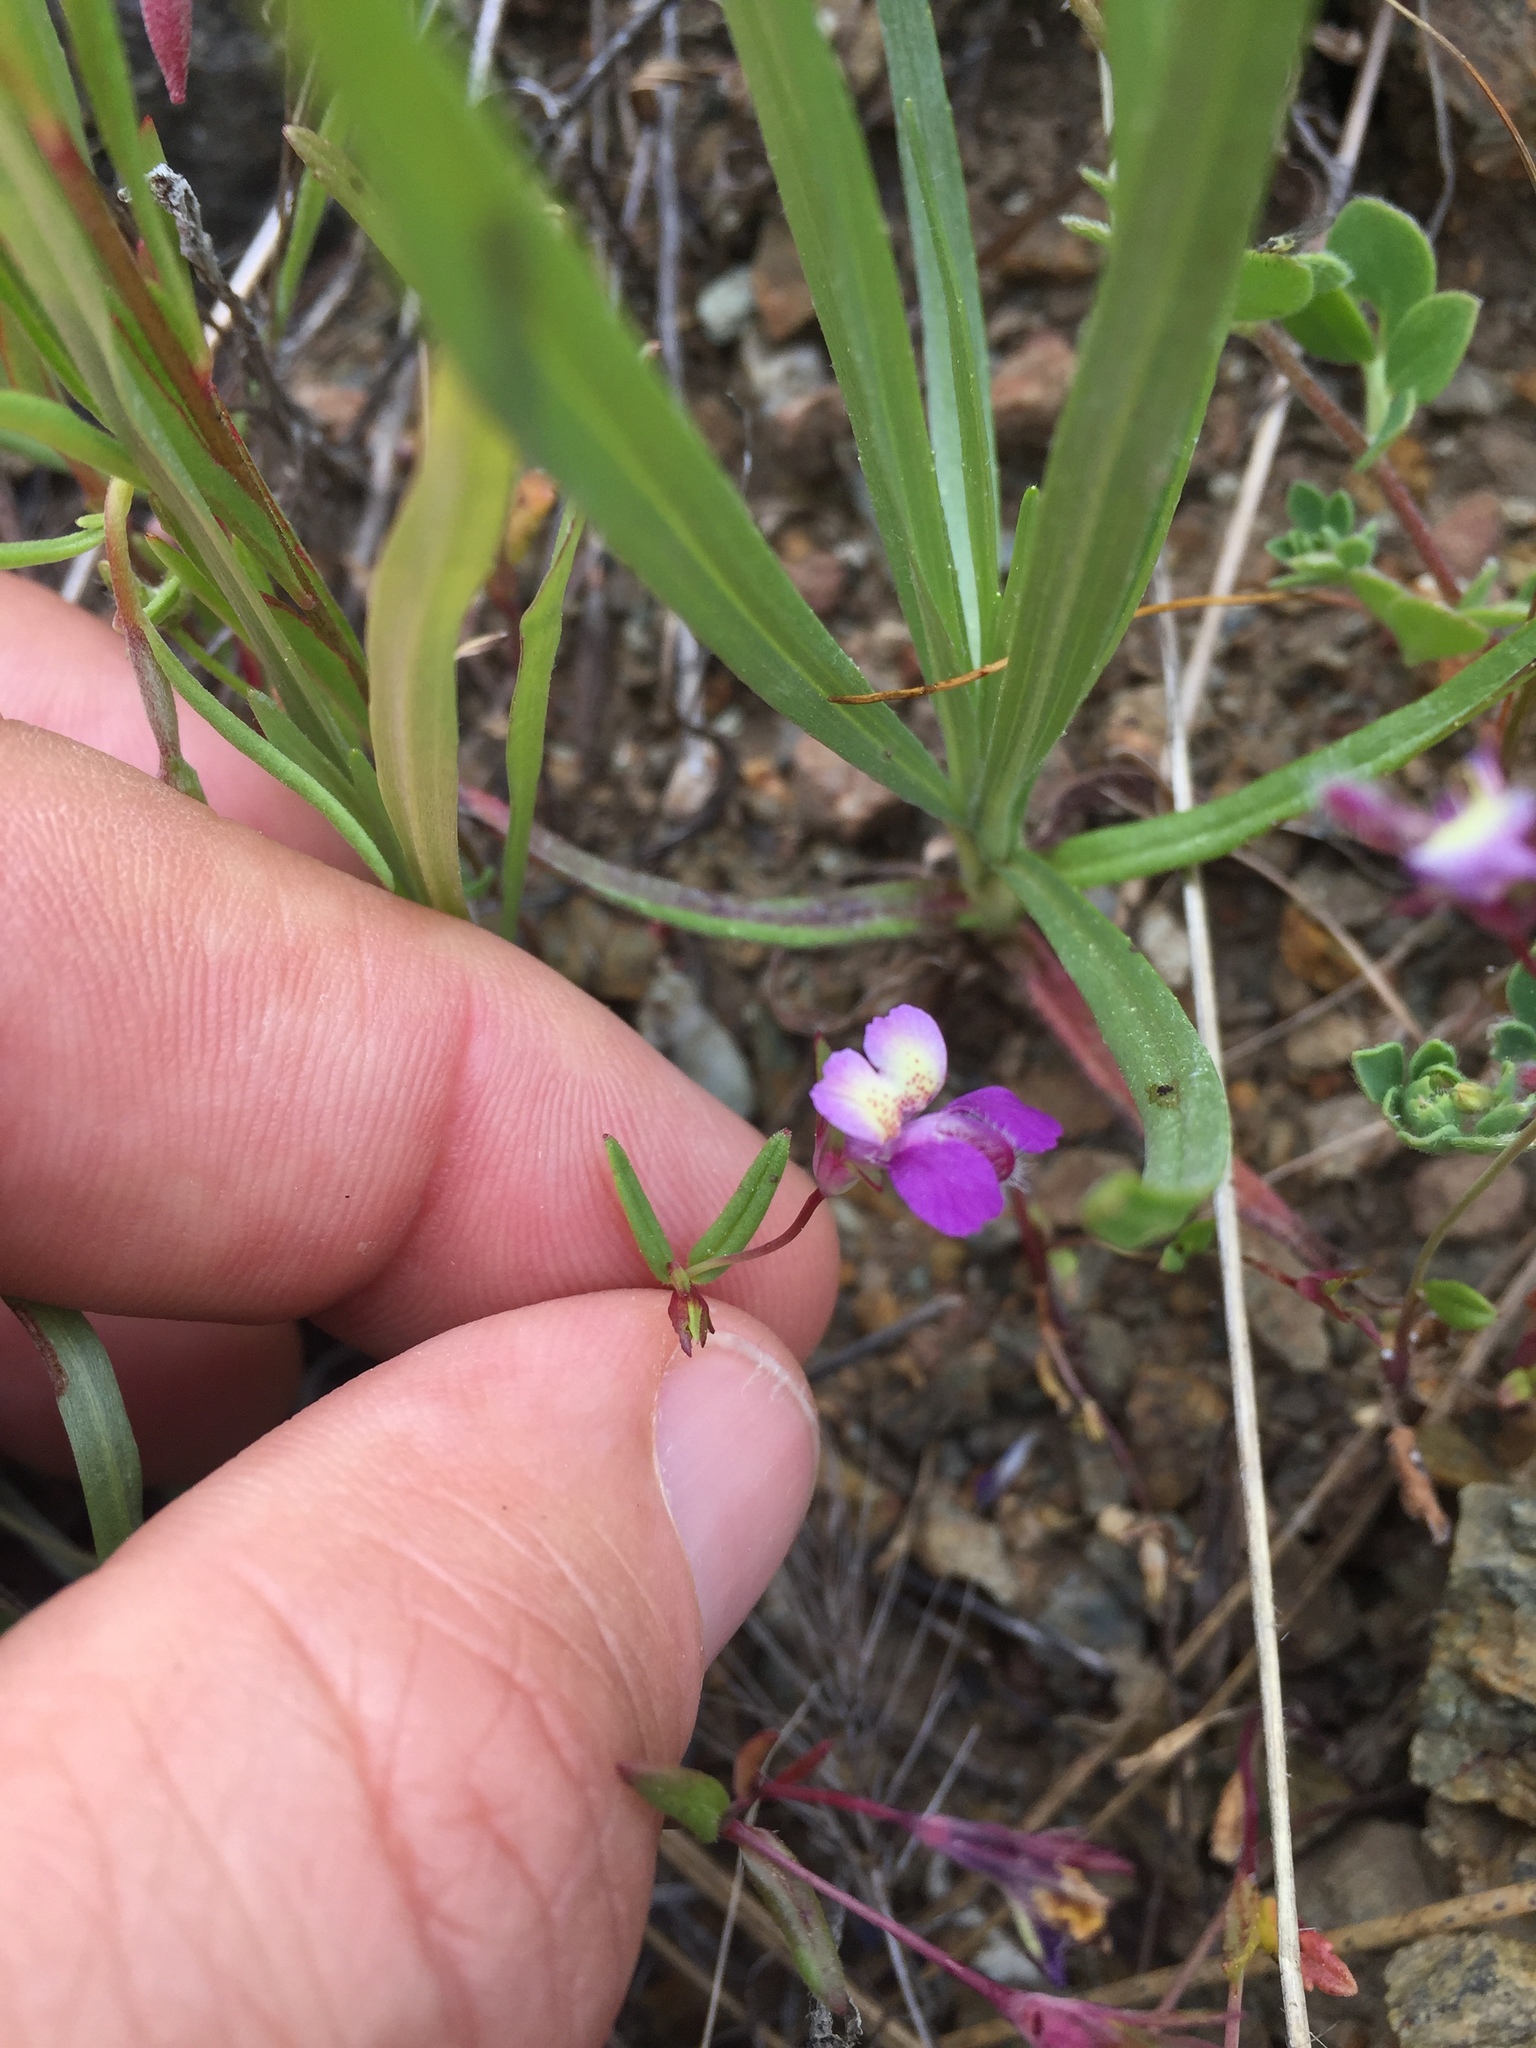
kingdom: Plantae
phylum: Tracheophyta
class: Magnoliopsida
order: Lamiales
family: Plantaginaceae
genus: Collinsia
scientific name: Collinsia sparsiflora
